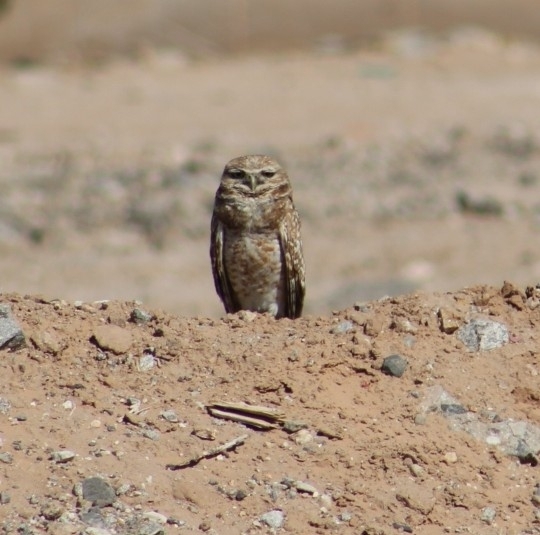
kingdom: Animalia
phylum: Chordata
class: Aves
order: Strigiformes
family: Strigidae
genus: Athene
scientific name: Athene cunicularia
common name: Burrowing owl
